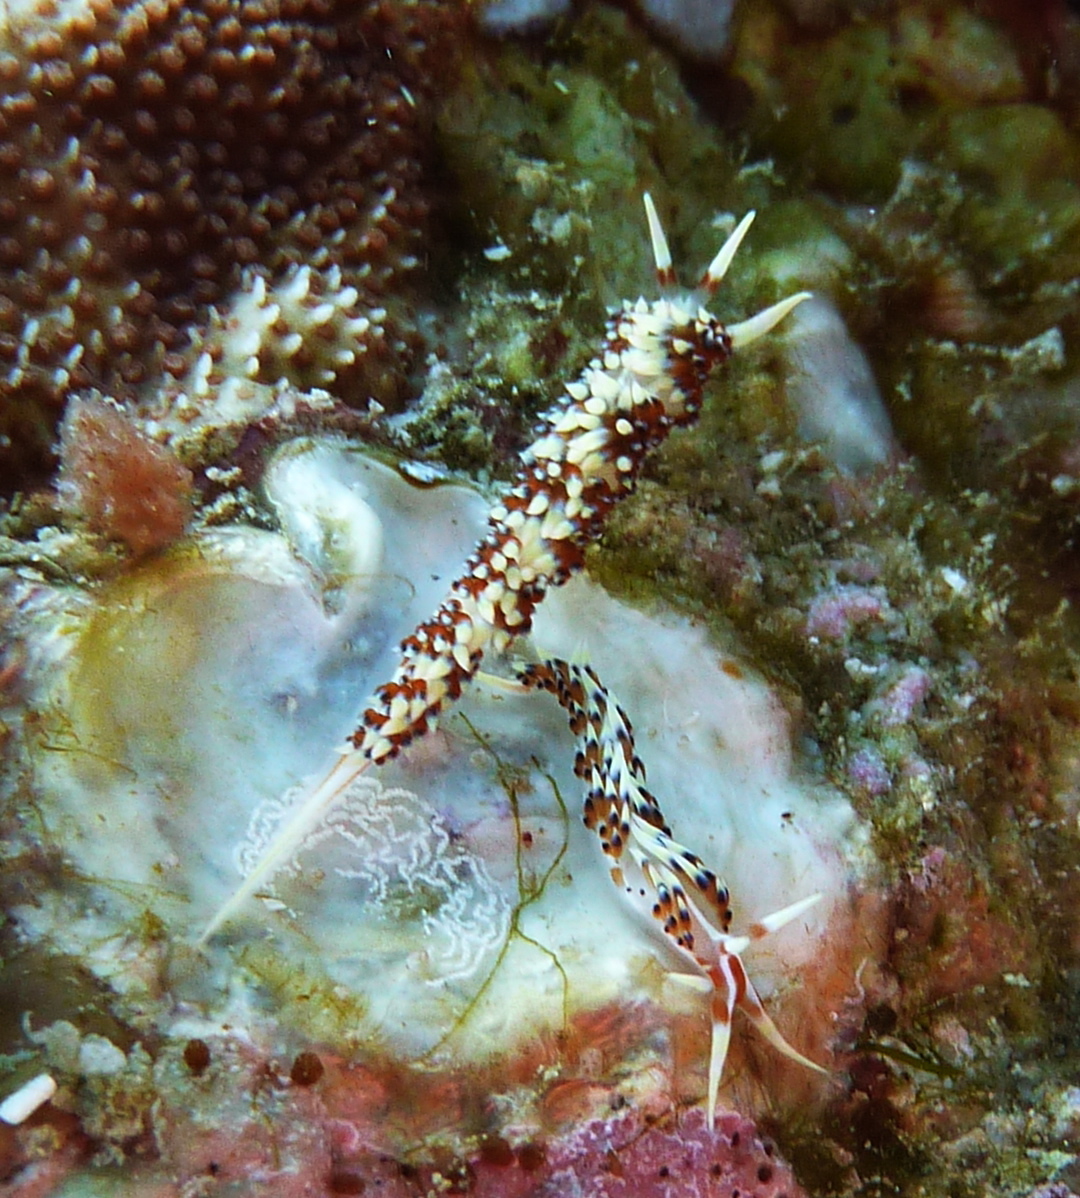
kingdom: Animalia
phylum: Mollusca
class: Gastropoda
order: Nudibranchia
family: Facelinidae
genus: Caloria
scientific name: Caloria indica
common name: Sea slug
